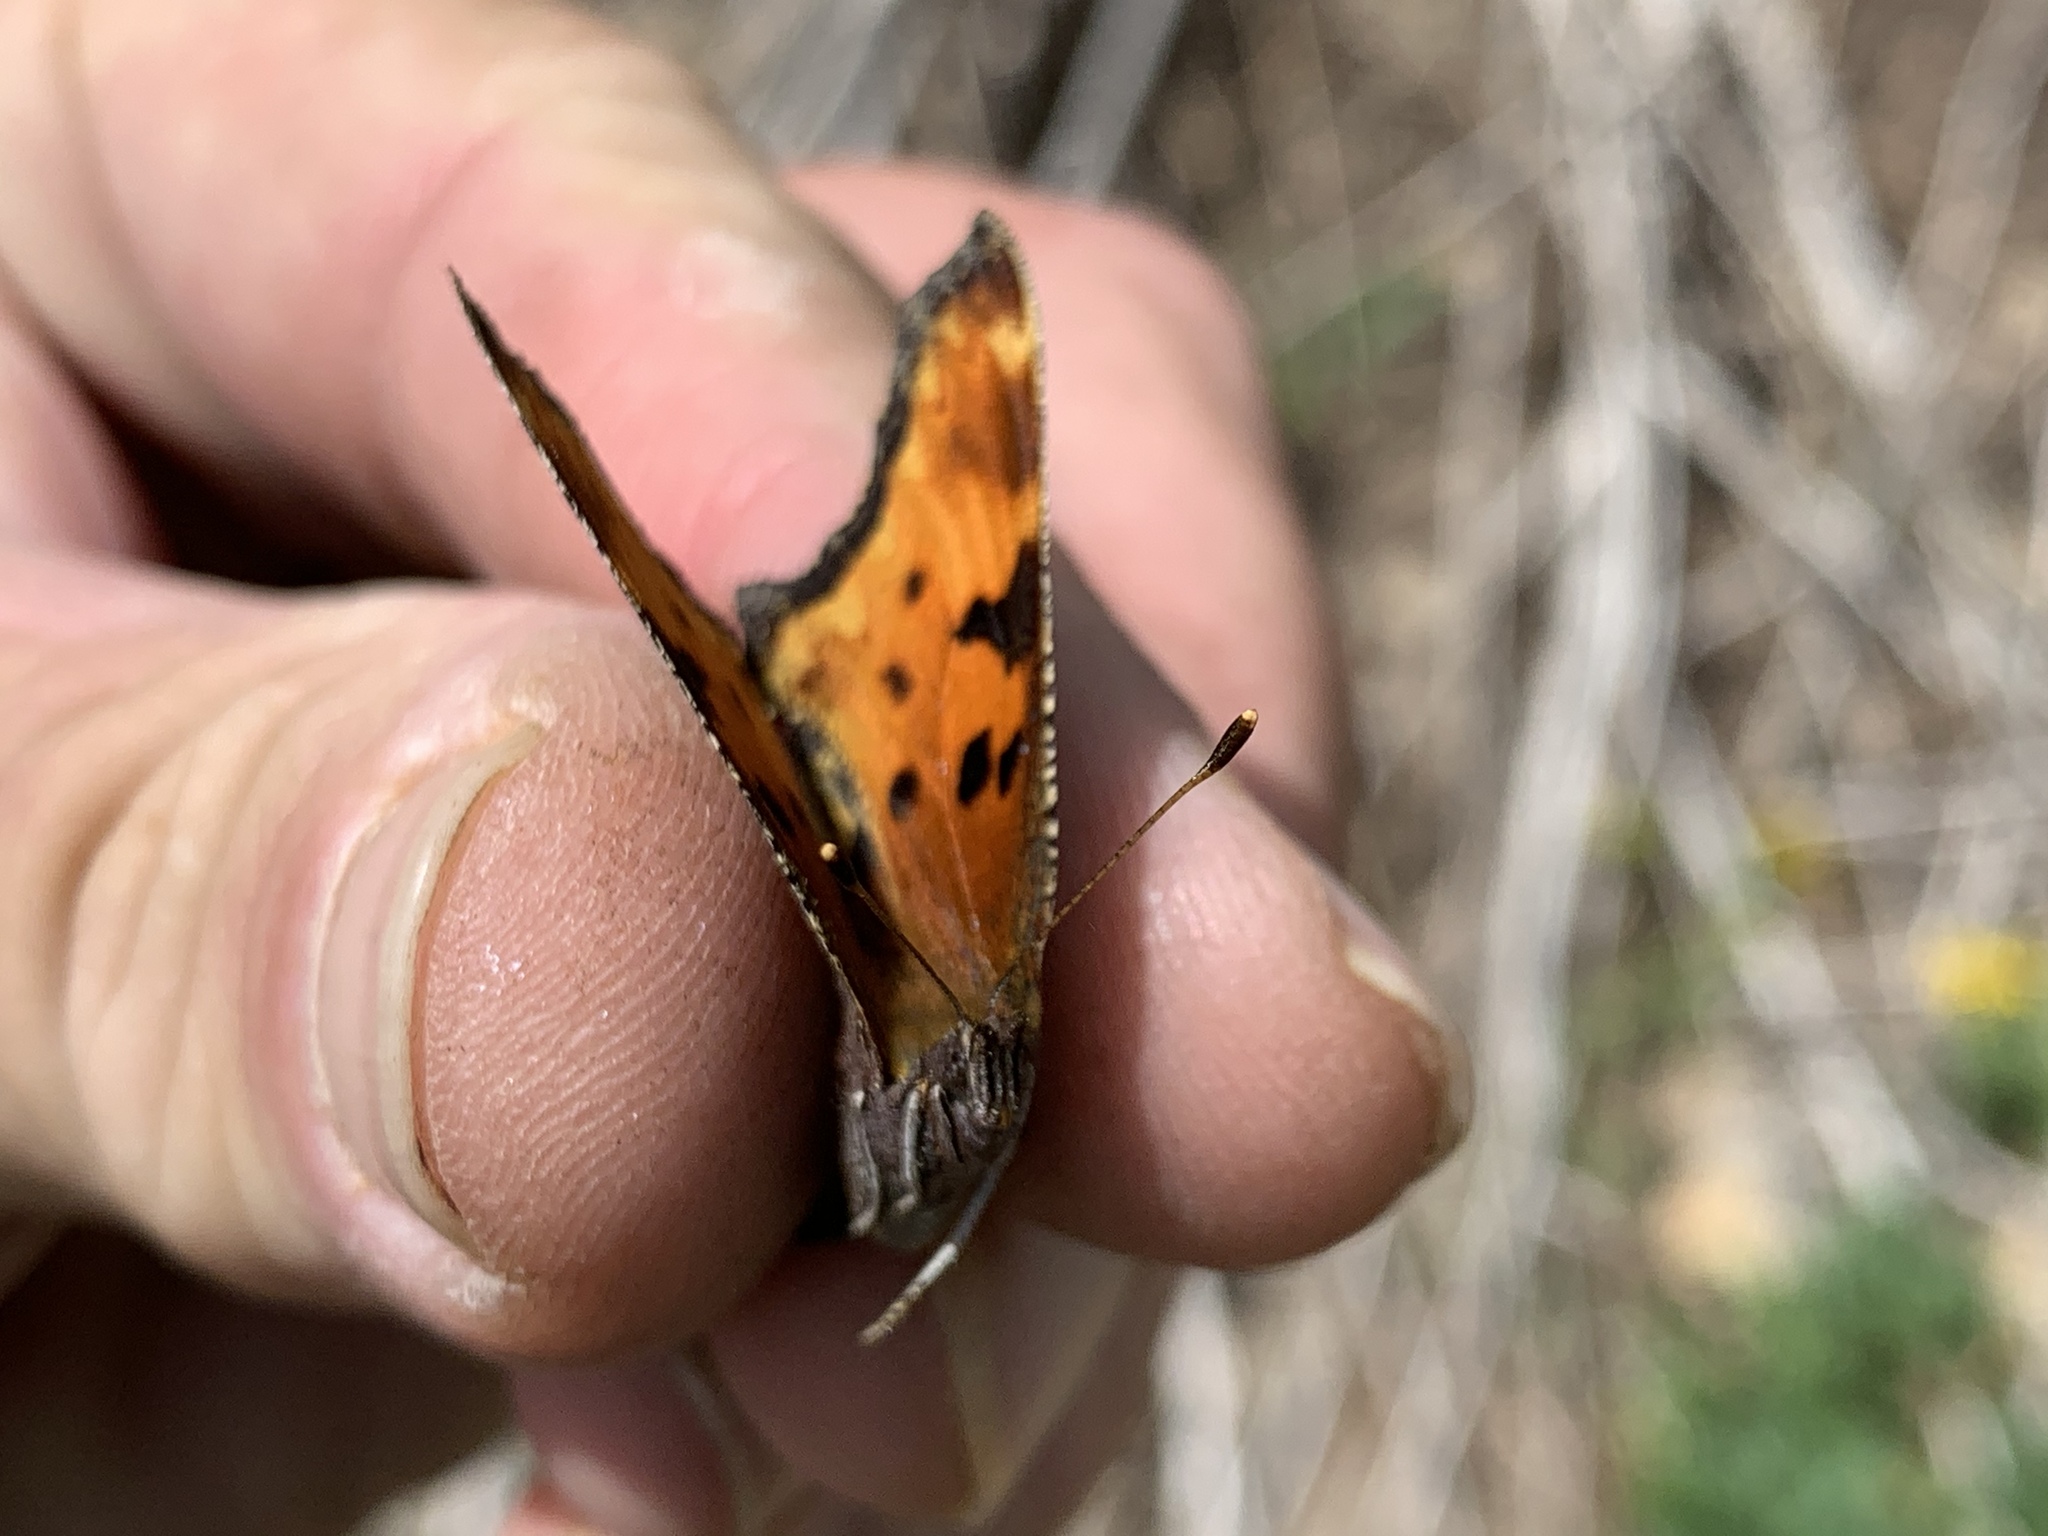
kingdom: Animalia
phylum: Arthropoda
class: Insecta
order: Lepidoptera
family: Nymphalidae
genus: Polygonia
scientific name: Polygonia gracilis
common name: Hoary comma
